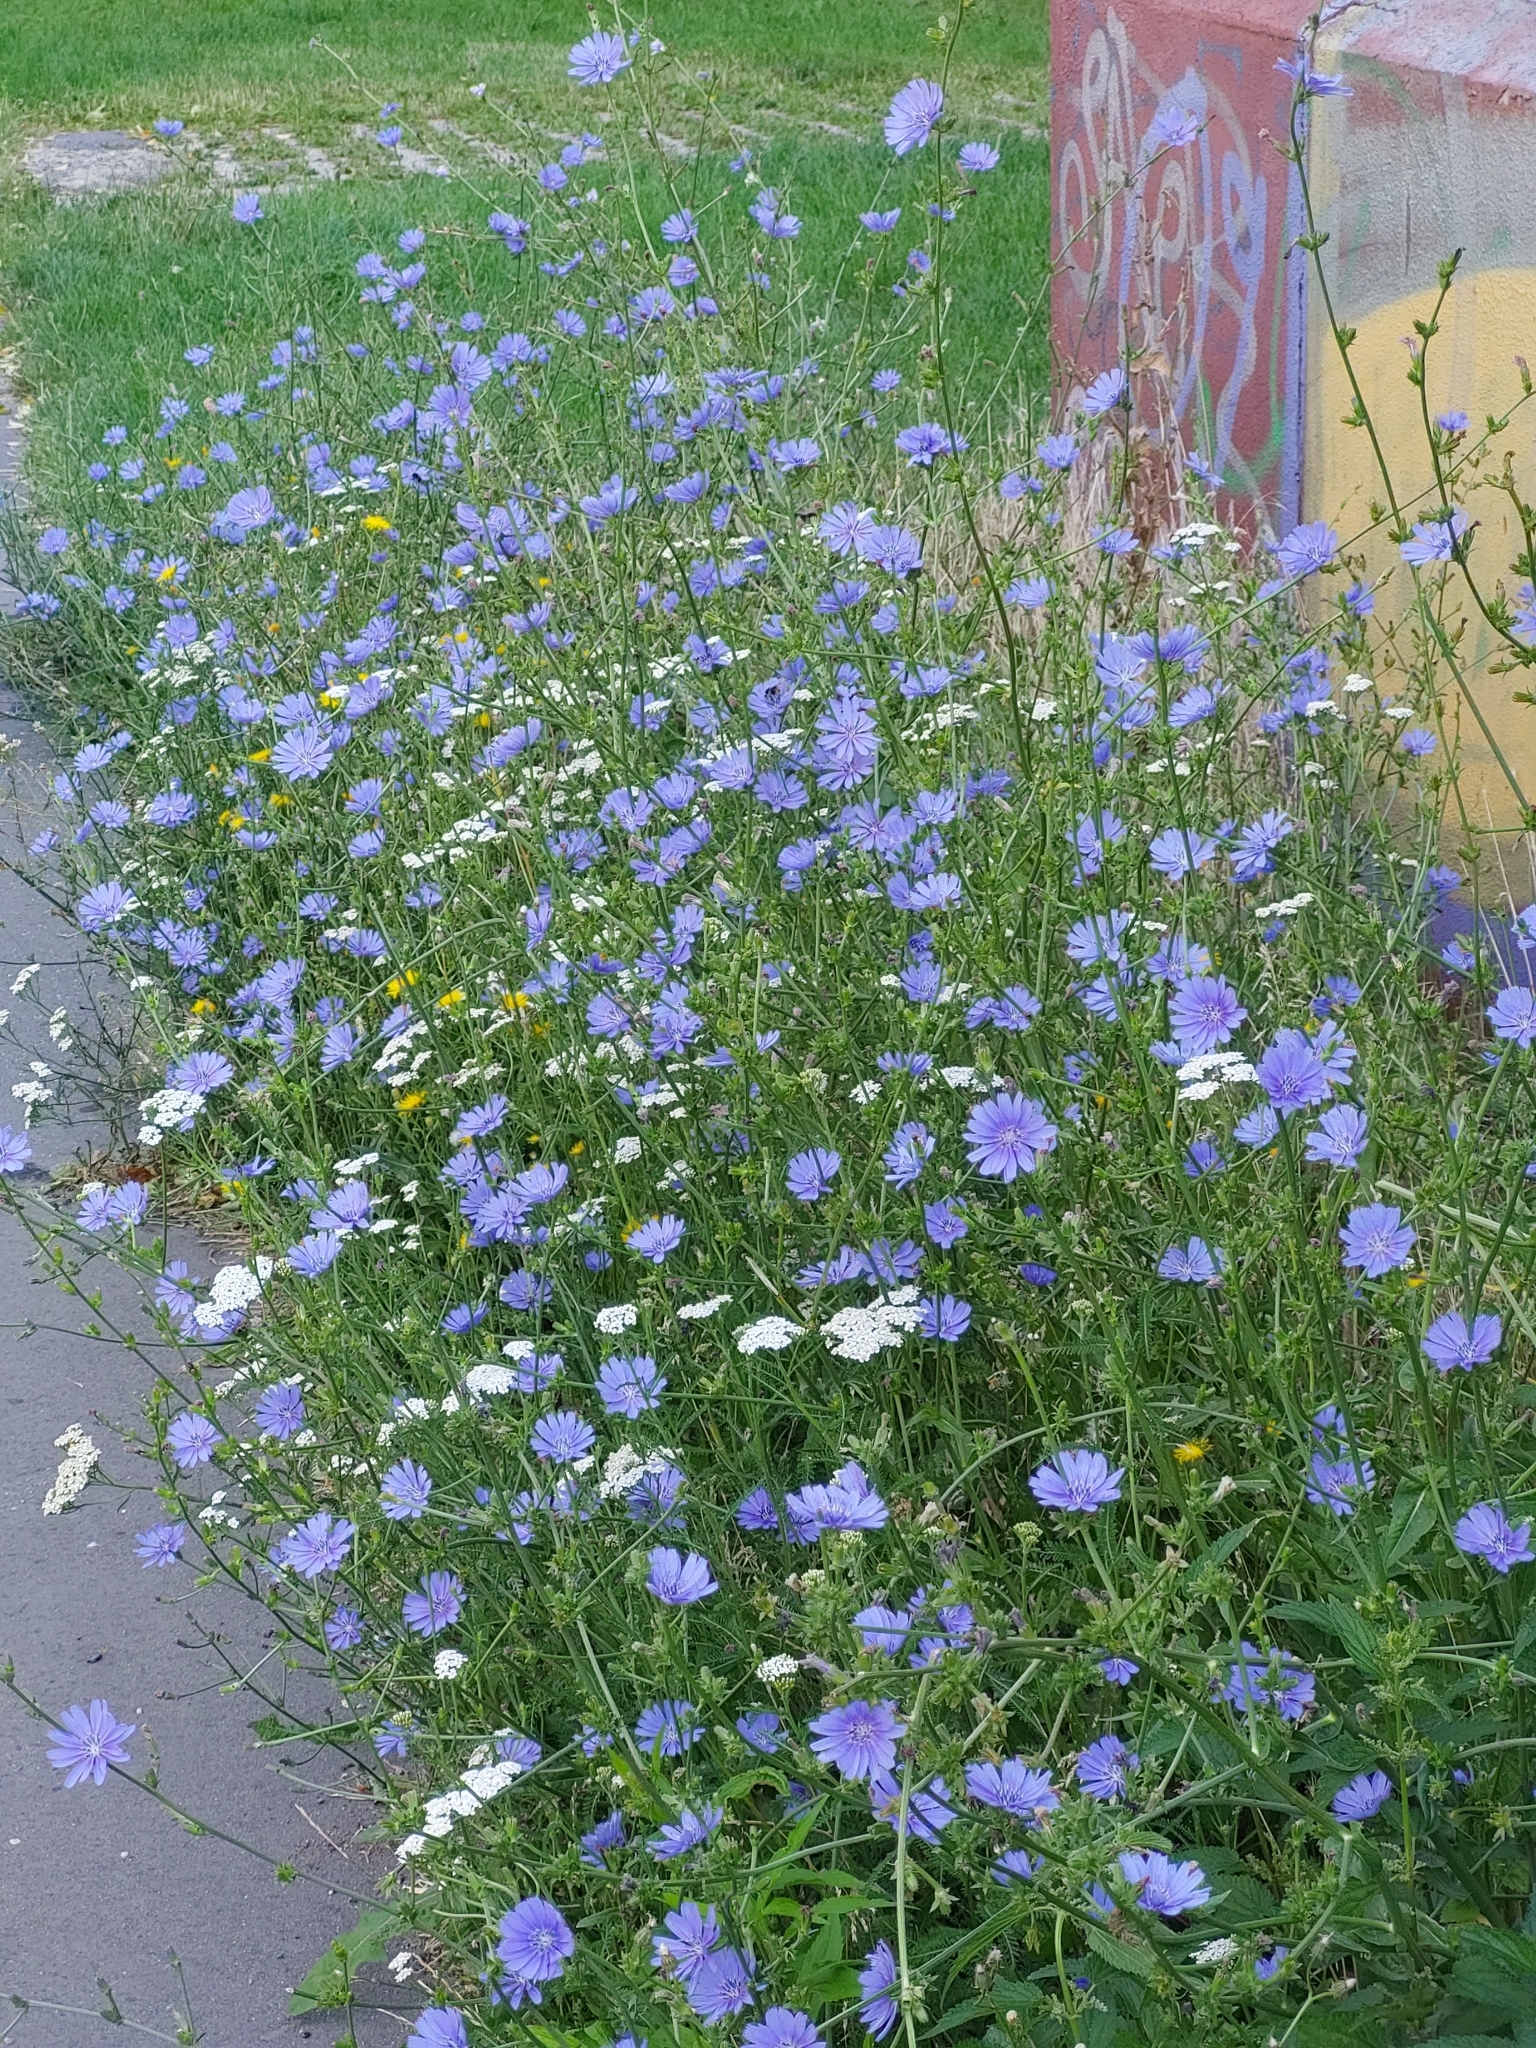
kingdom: Plantae
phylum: Tracheophyta
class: Magnoliopsida
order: Asterales
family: Asteraceae
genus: Cichorium
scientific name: Cichorium intybus
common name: Chicory
